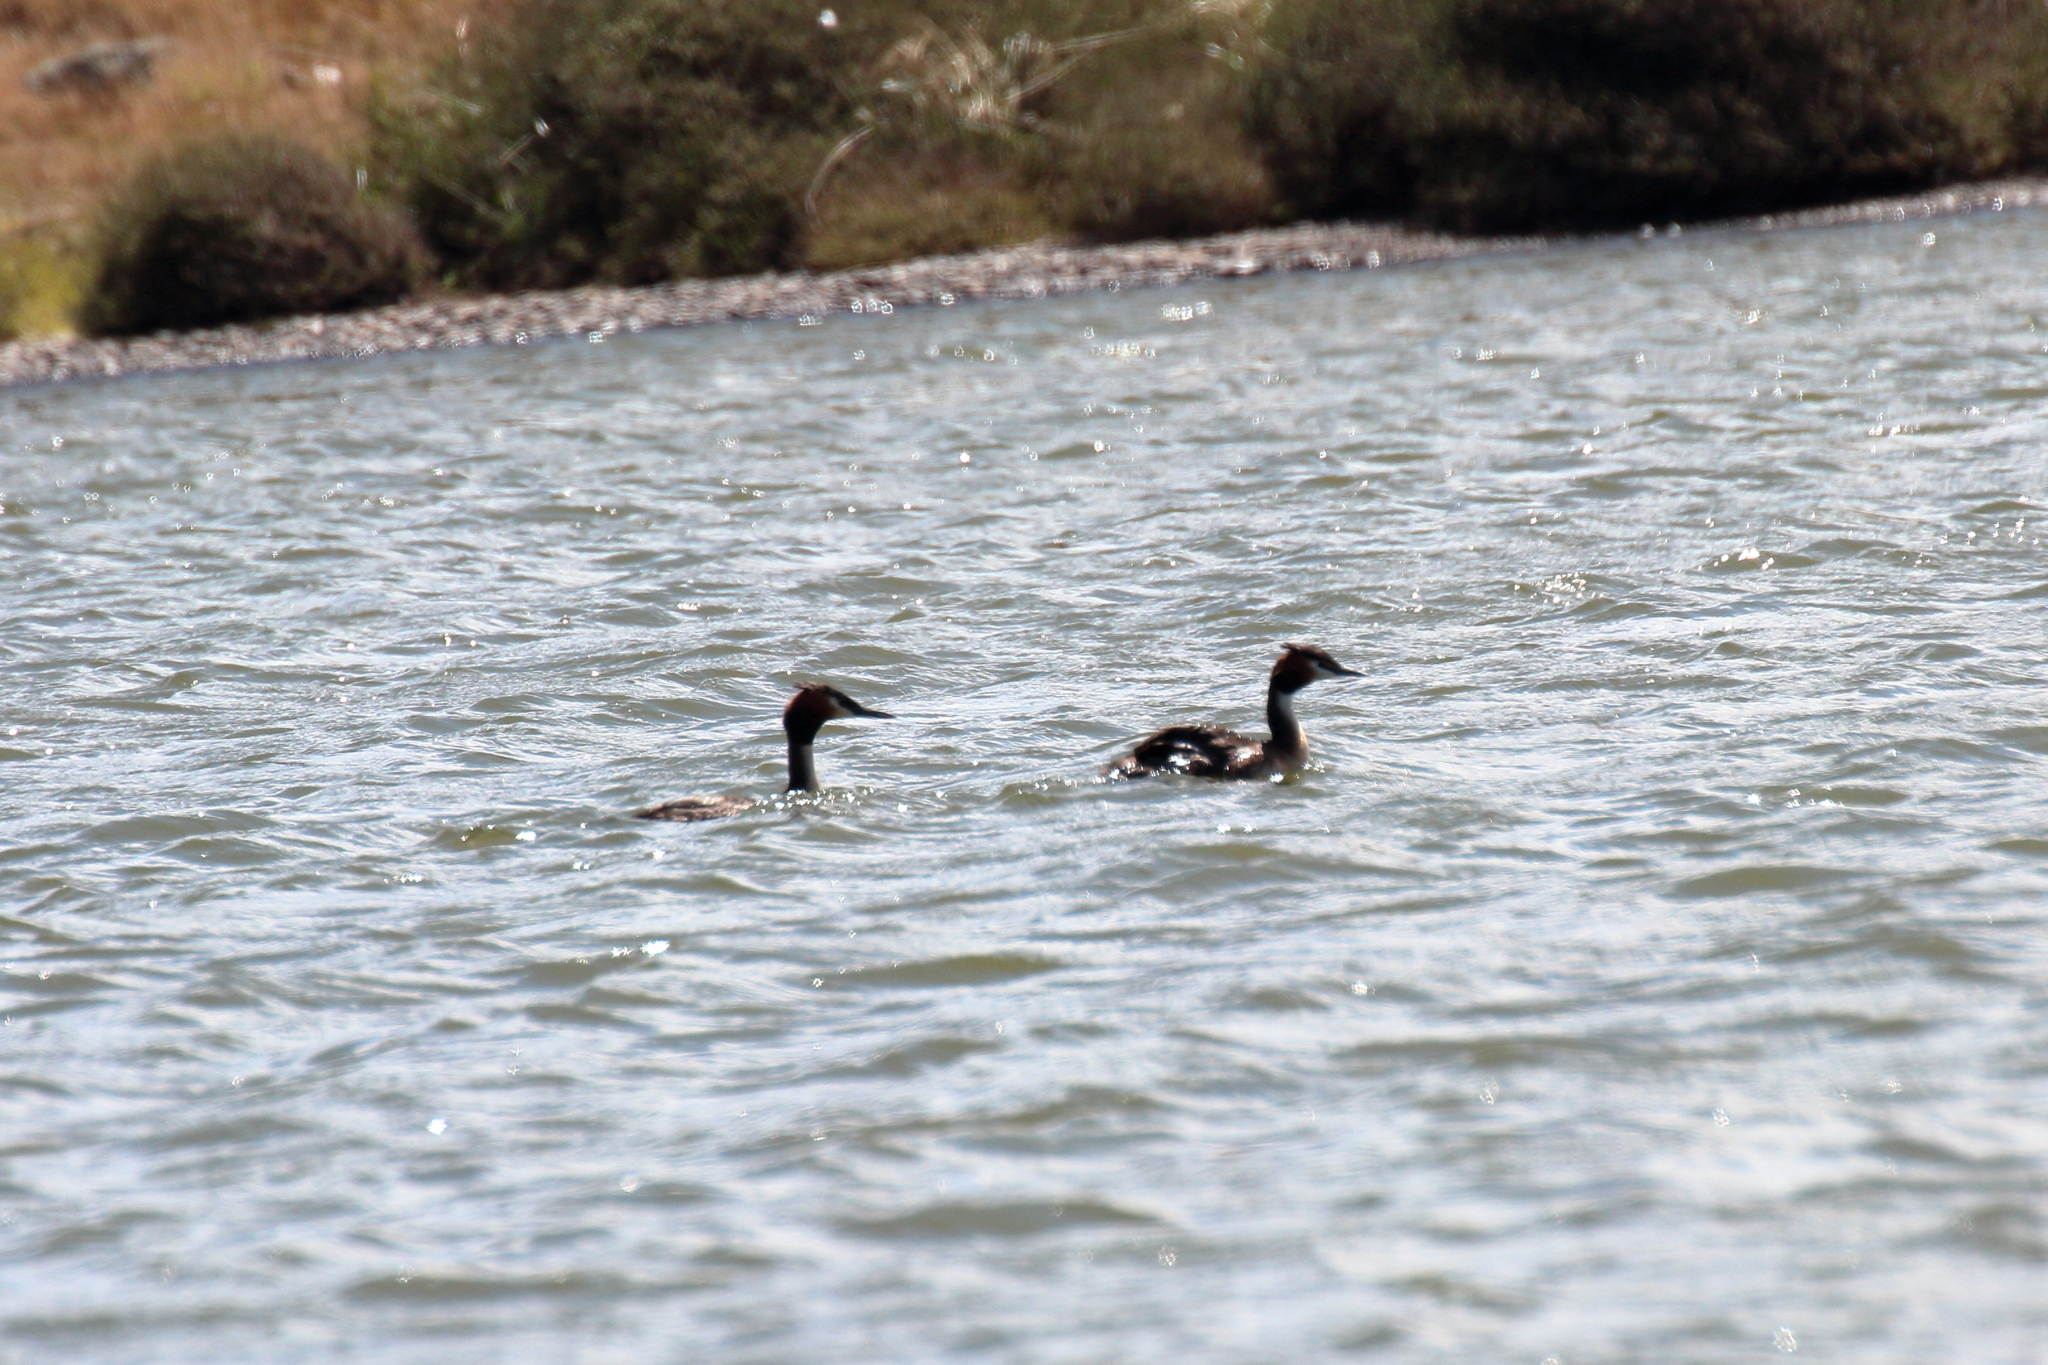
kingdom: Animalia
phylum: Chordata
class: Aves
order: Podicipediformes
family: Podicipedidae
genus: Podiceps
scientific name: Podiceps cristatus
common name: Great crested grebe
